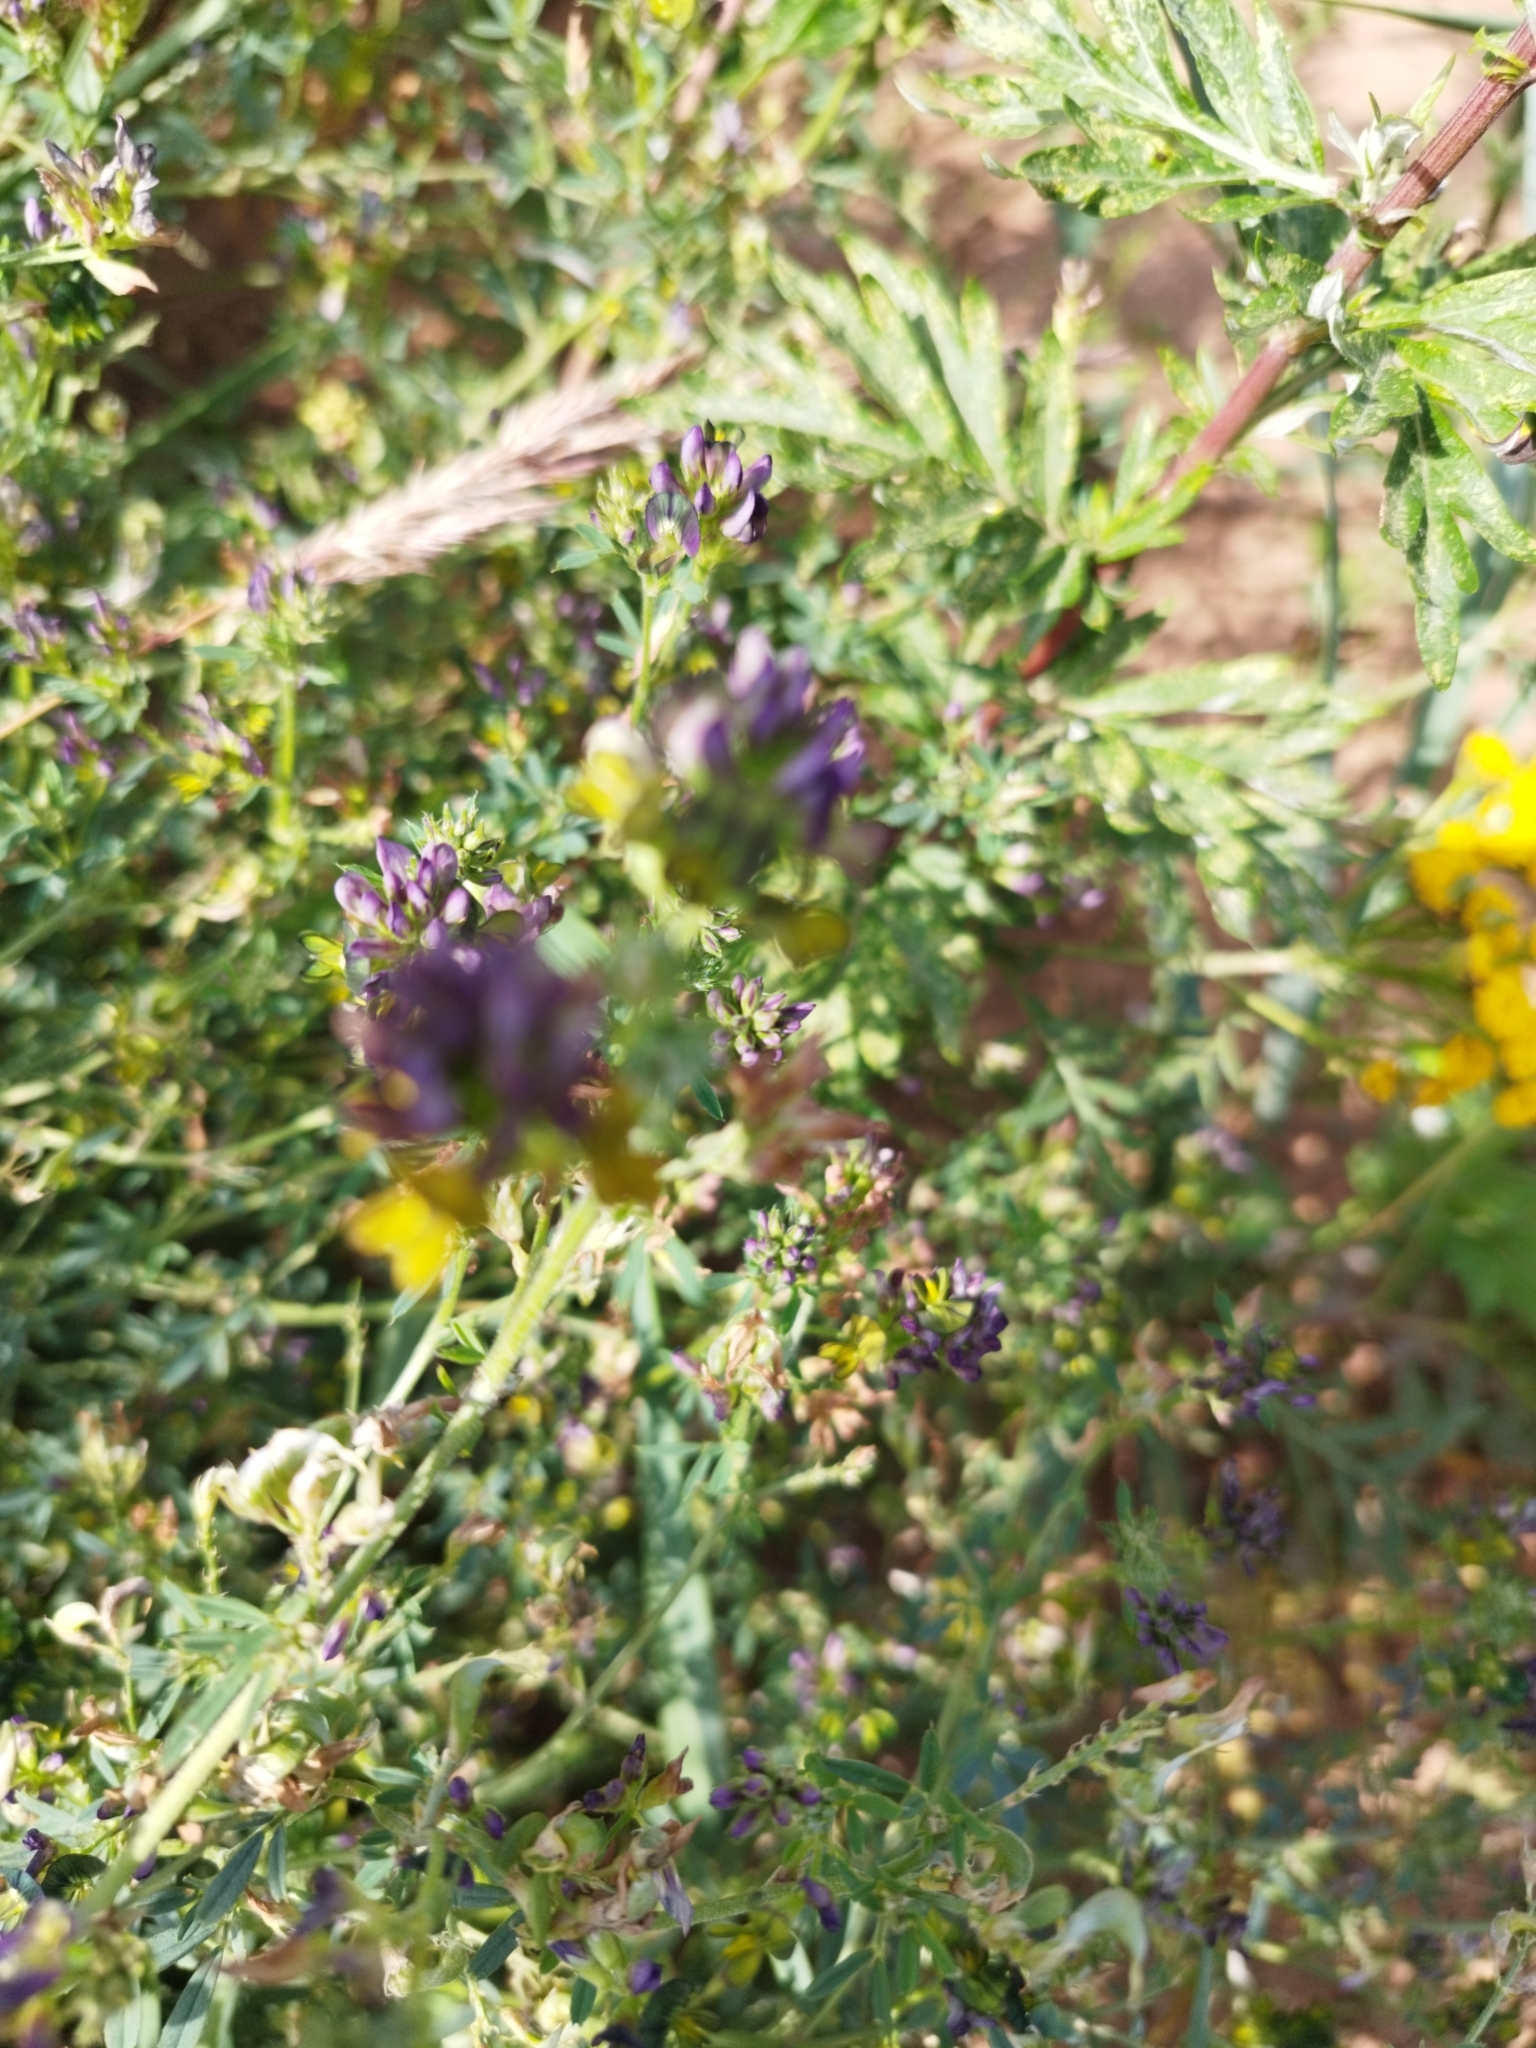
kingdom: Plantae
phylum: Tracheophyta
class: Magnoliopsida
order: Fabales
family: Fabaceae
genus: Medicago
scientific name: Medicago sativa
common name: Alfalfa
